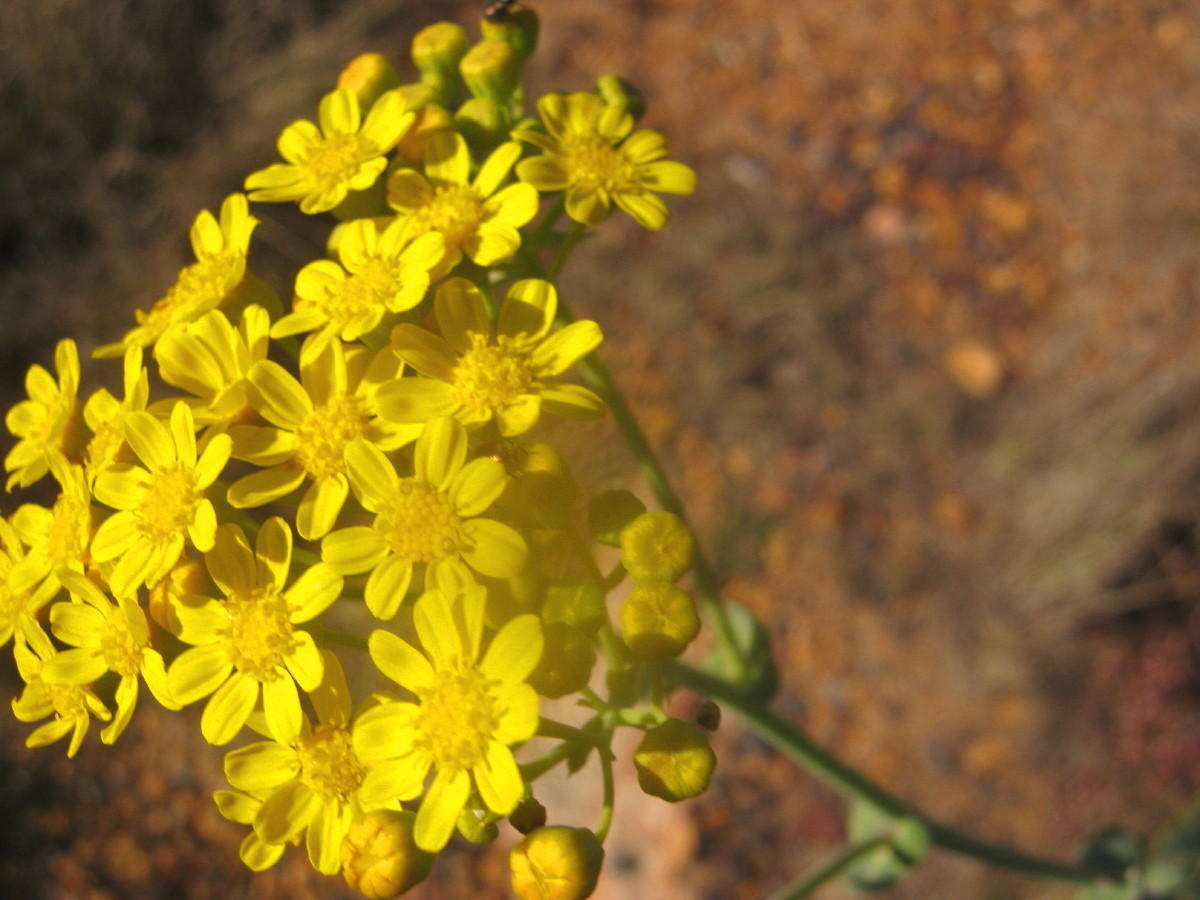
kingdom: Plantae
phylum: Tracheophyta
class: Magnoliopsida
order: Asterales
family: Asteraceae
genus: Othonna
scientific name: Othonna parviflora
